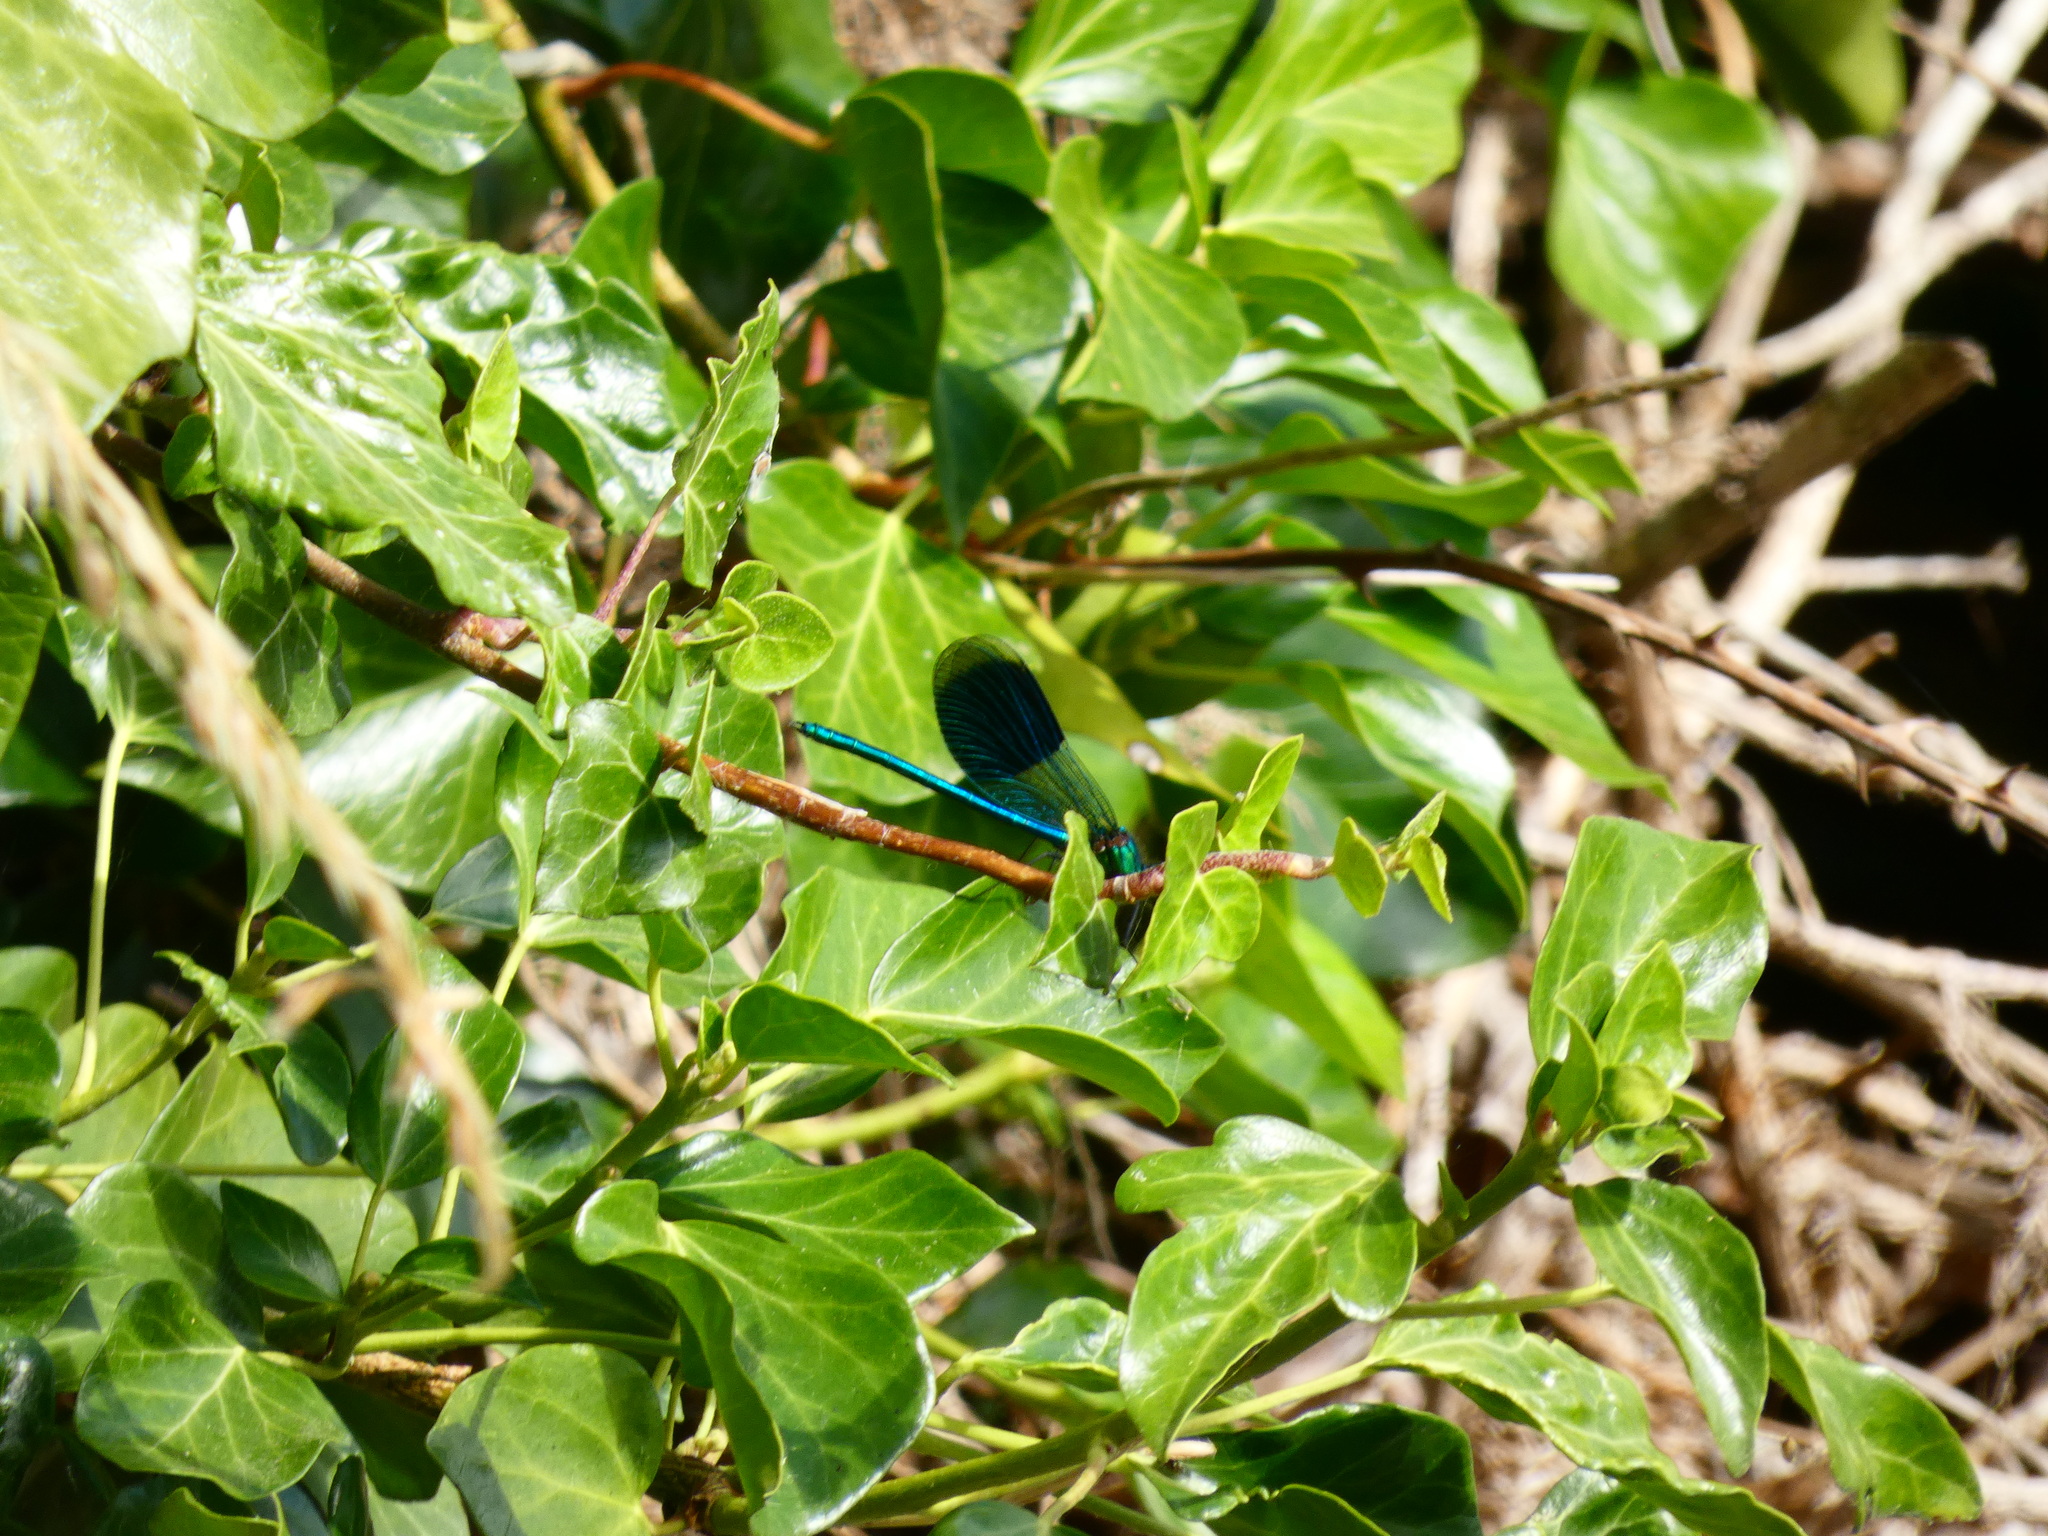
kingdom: Animalia
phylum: Arthropoda
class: Insecta
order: Odonata
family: Calopterygidae
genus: Calopteryx
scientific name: Calopteryx splendens
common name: Banded demoiselle
